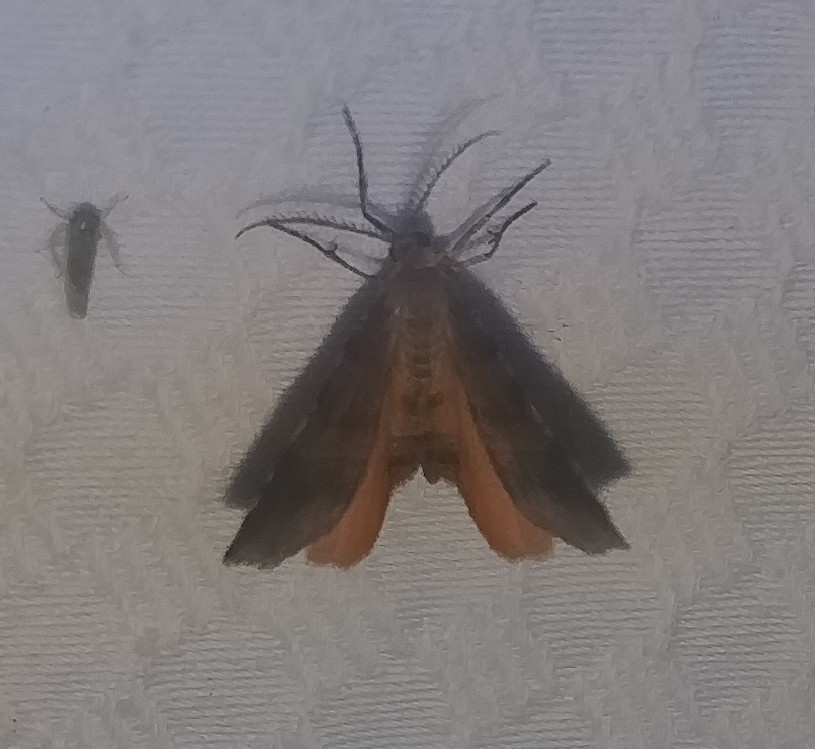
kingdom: Animalia
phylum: Arthropoda
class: Insecta
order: Lepidoptera
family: Geometridae
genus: Mellilla
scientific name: Mellilla xanthometata
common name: Orange wing moth
